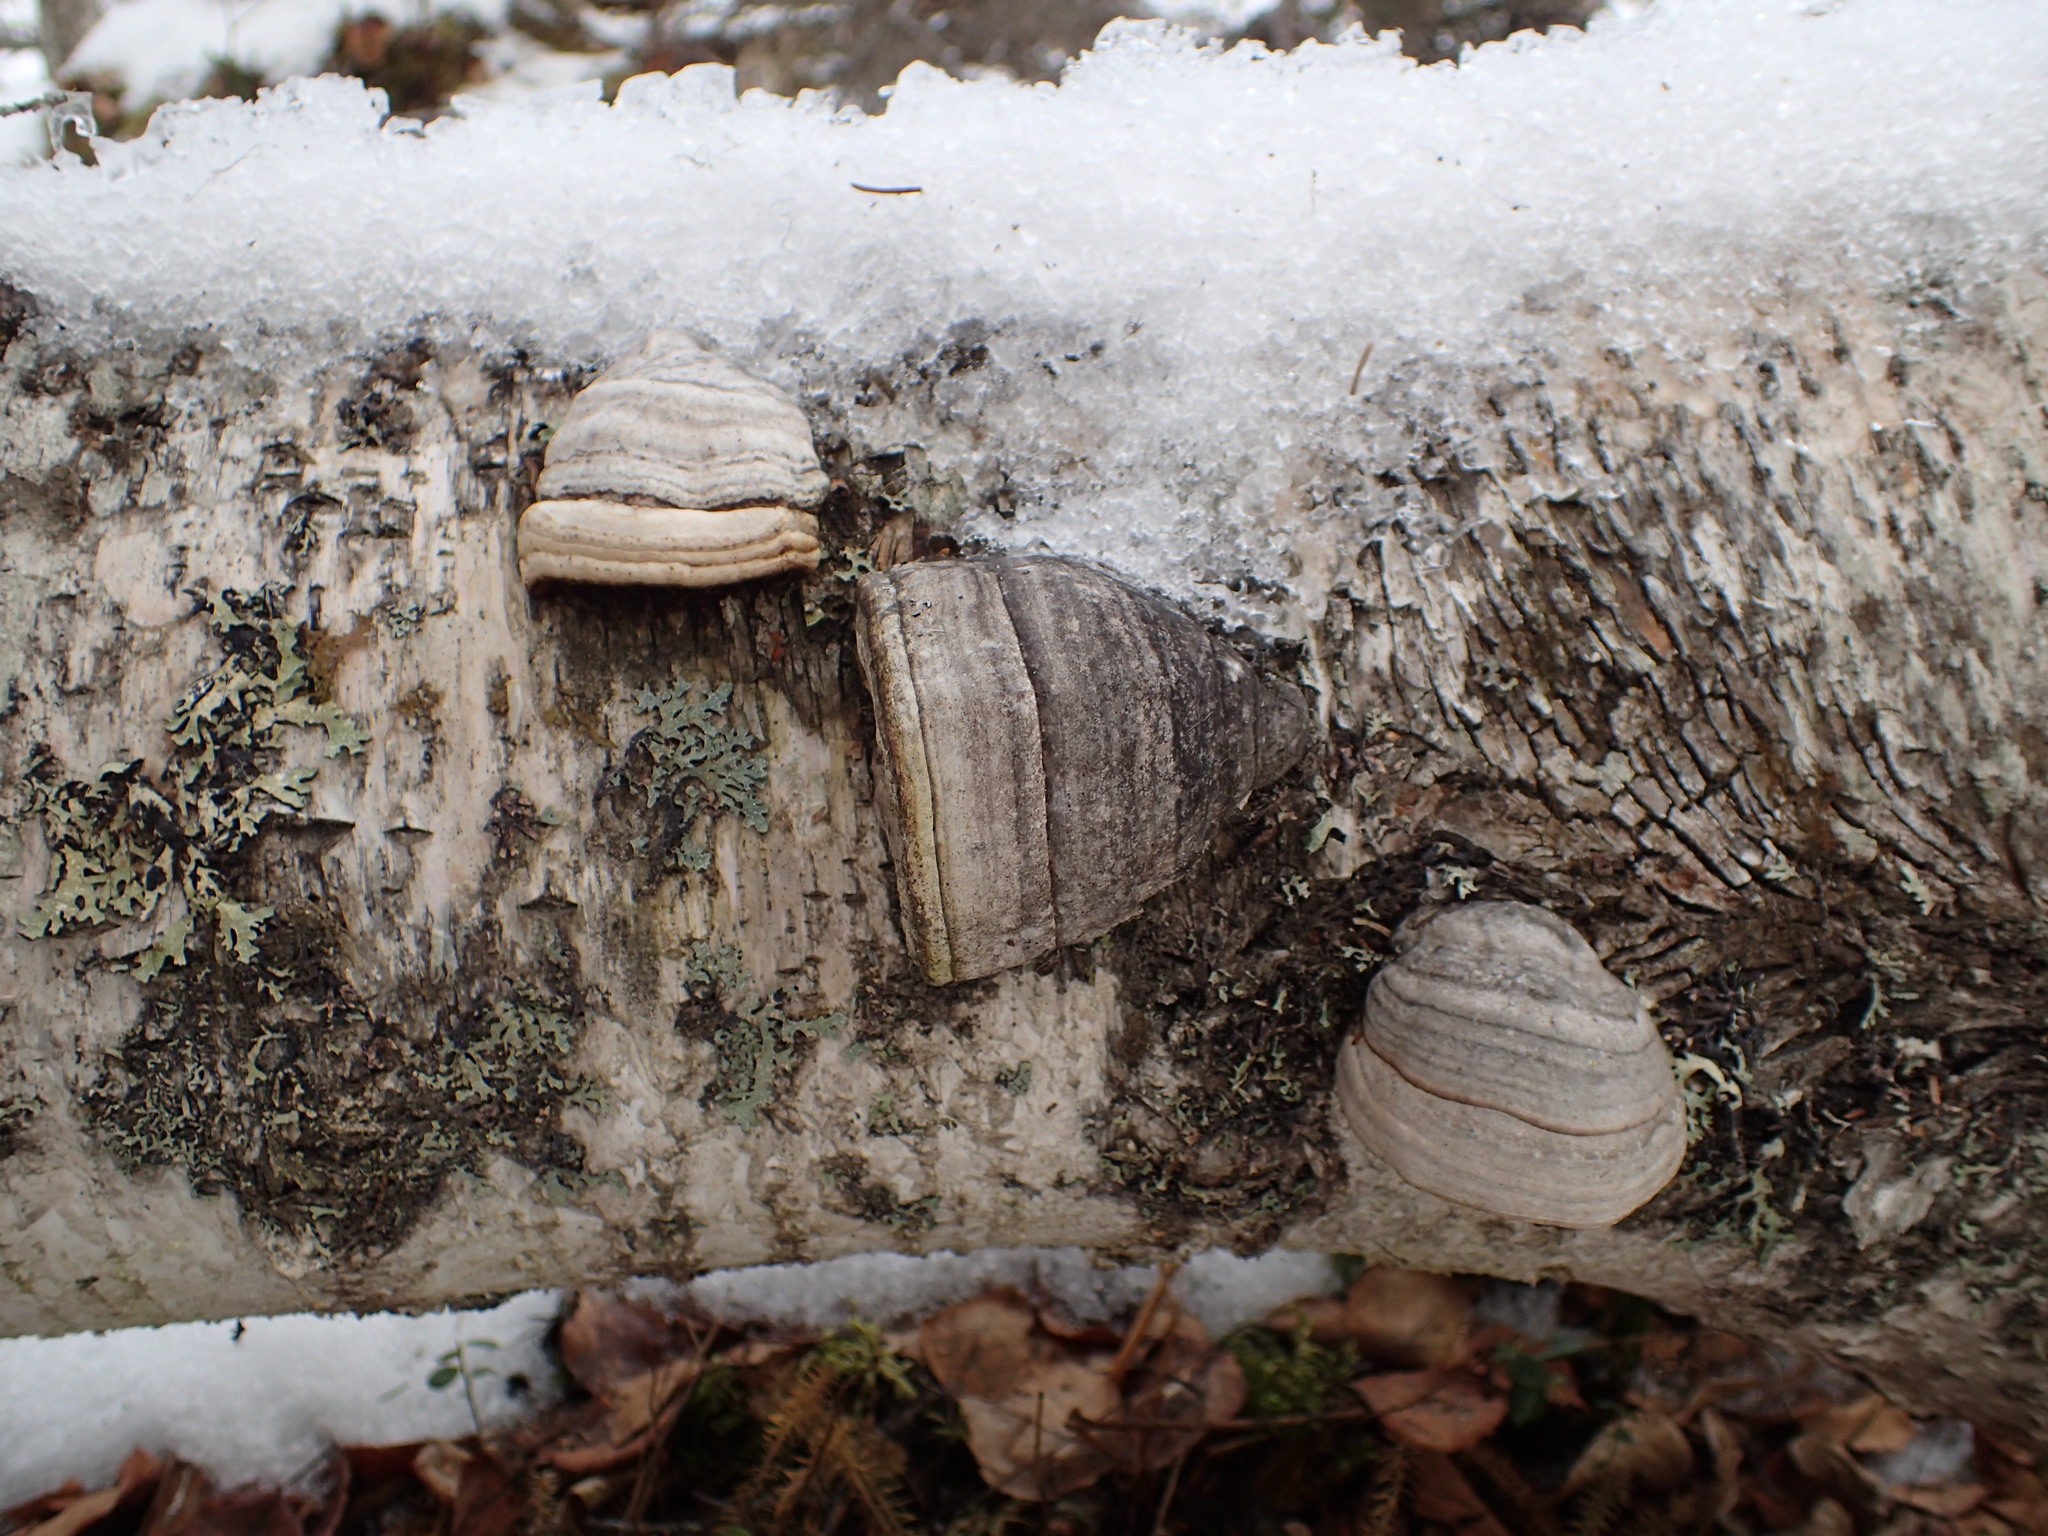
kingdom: Fungi
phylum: Basidiomycota
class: Agaricomycetes
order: Polyporales
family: Polyporaceae
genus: Fomes
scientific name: Fomes fomentarius
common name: Hoof fungus
